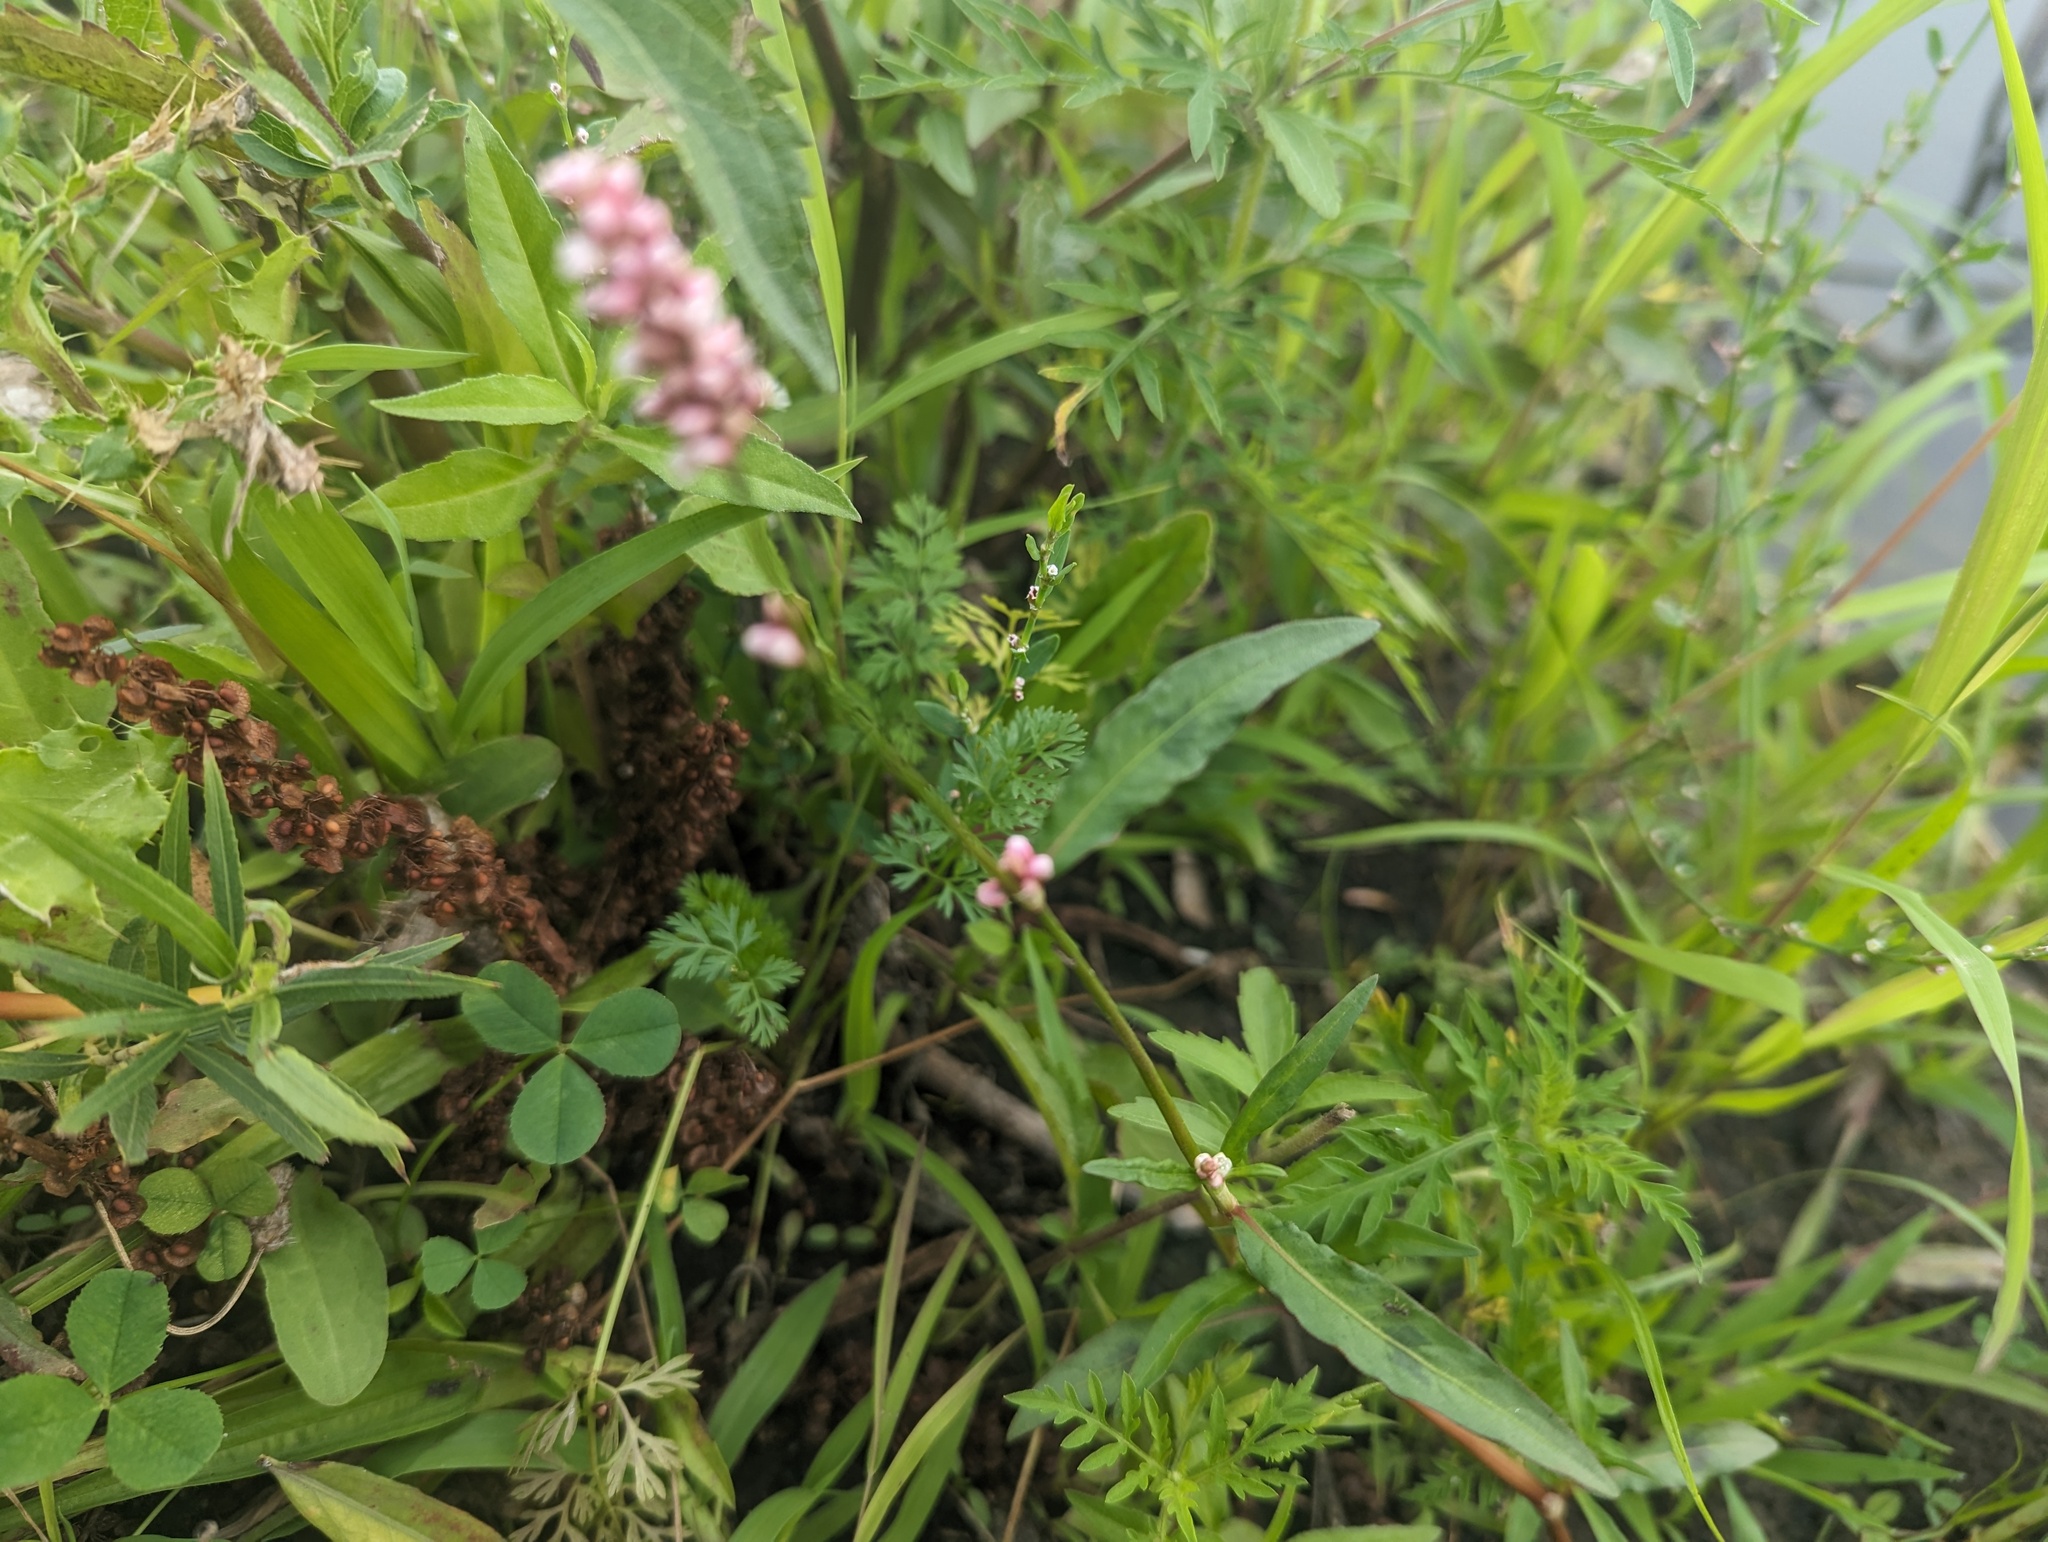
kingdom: Plantae
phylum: Tracheophyta
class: Magnoliopsida
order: Caryophyllales
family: Polygonaceae
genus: Persicaria
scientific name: Persicaria maculosa
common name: Redshank
